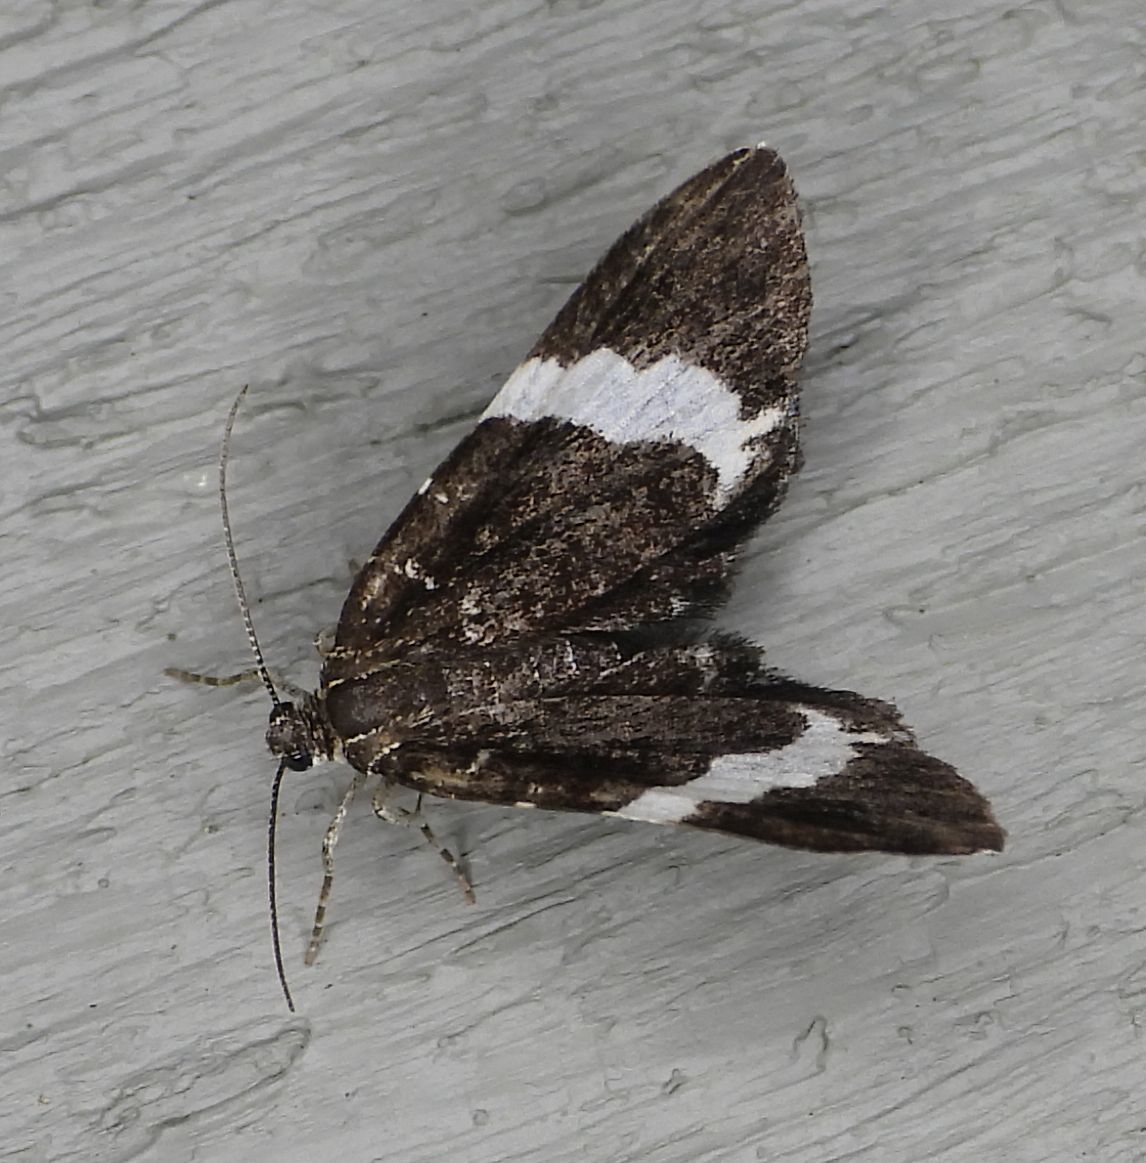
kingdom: Animalia
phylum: Arthropoda
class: Insecta
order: Lepidoptera
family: Geometridae
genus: Trichodezia
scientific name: Trichodezia albovittata
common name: White striped black
